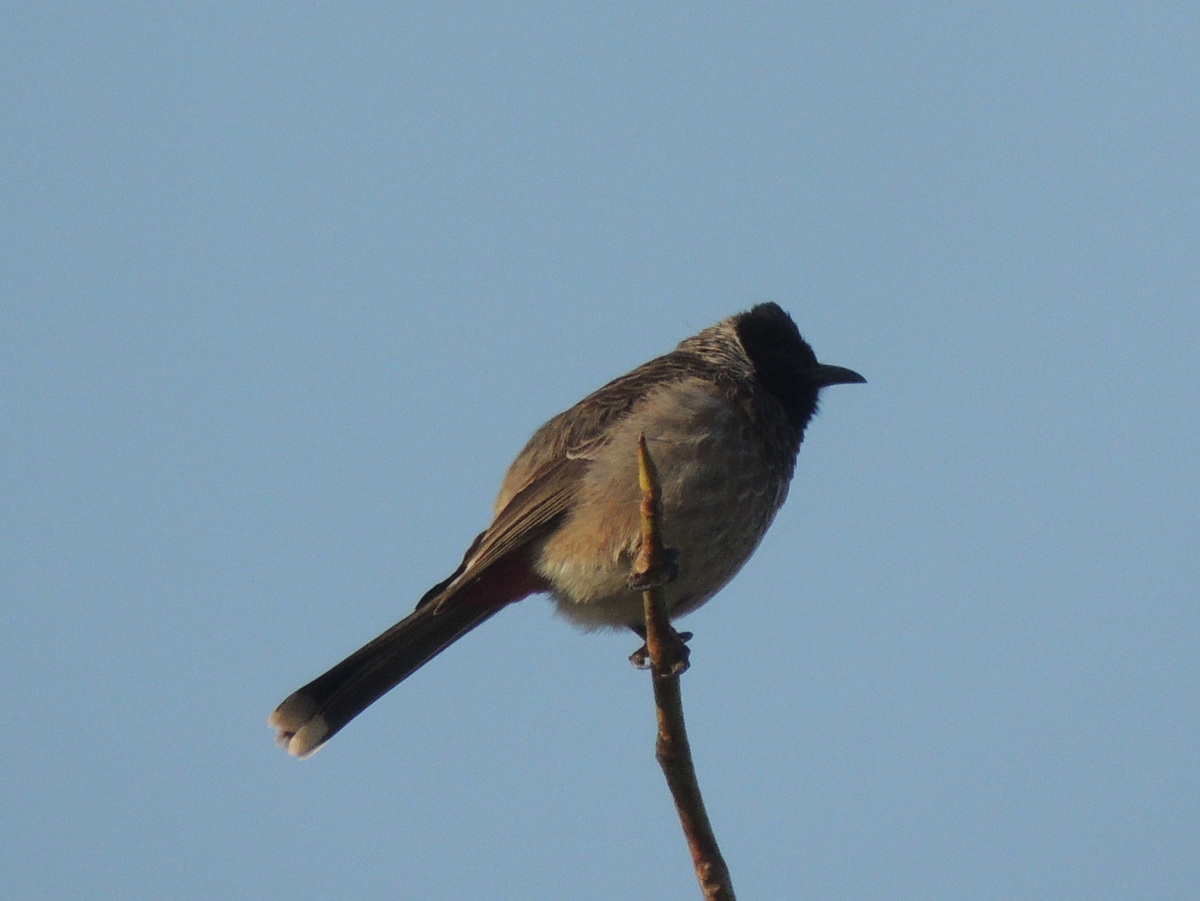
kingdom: Animalia
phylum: Chordata
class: Aves
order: Passeriformes
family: Pycnonotidae
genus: Pycnonotus
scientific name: Pycnonotus cafer
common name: Red-vented bulbul
